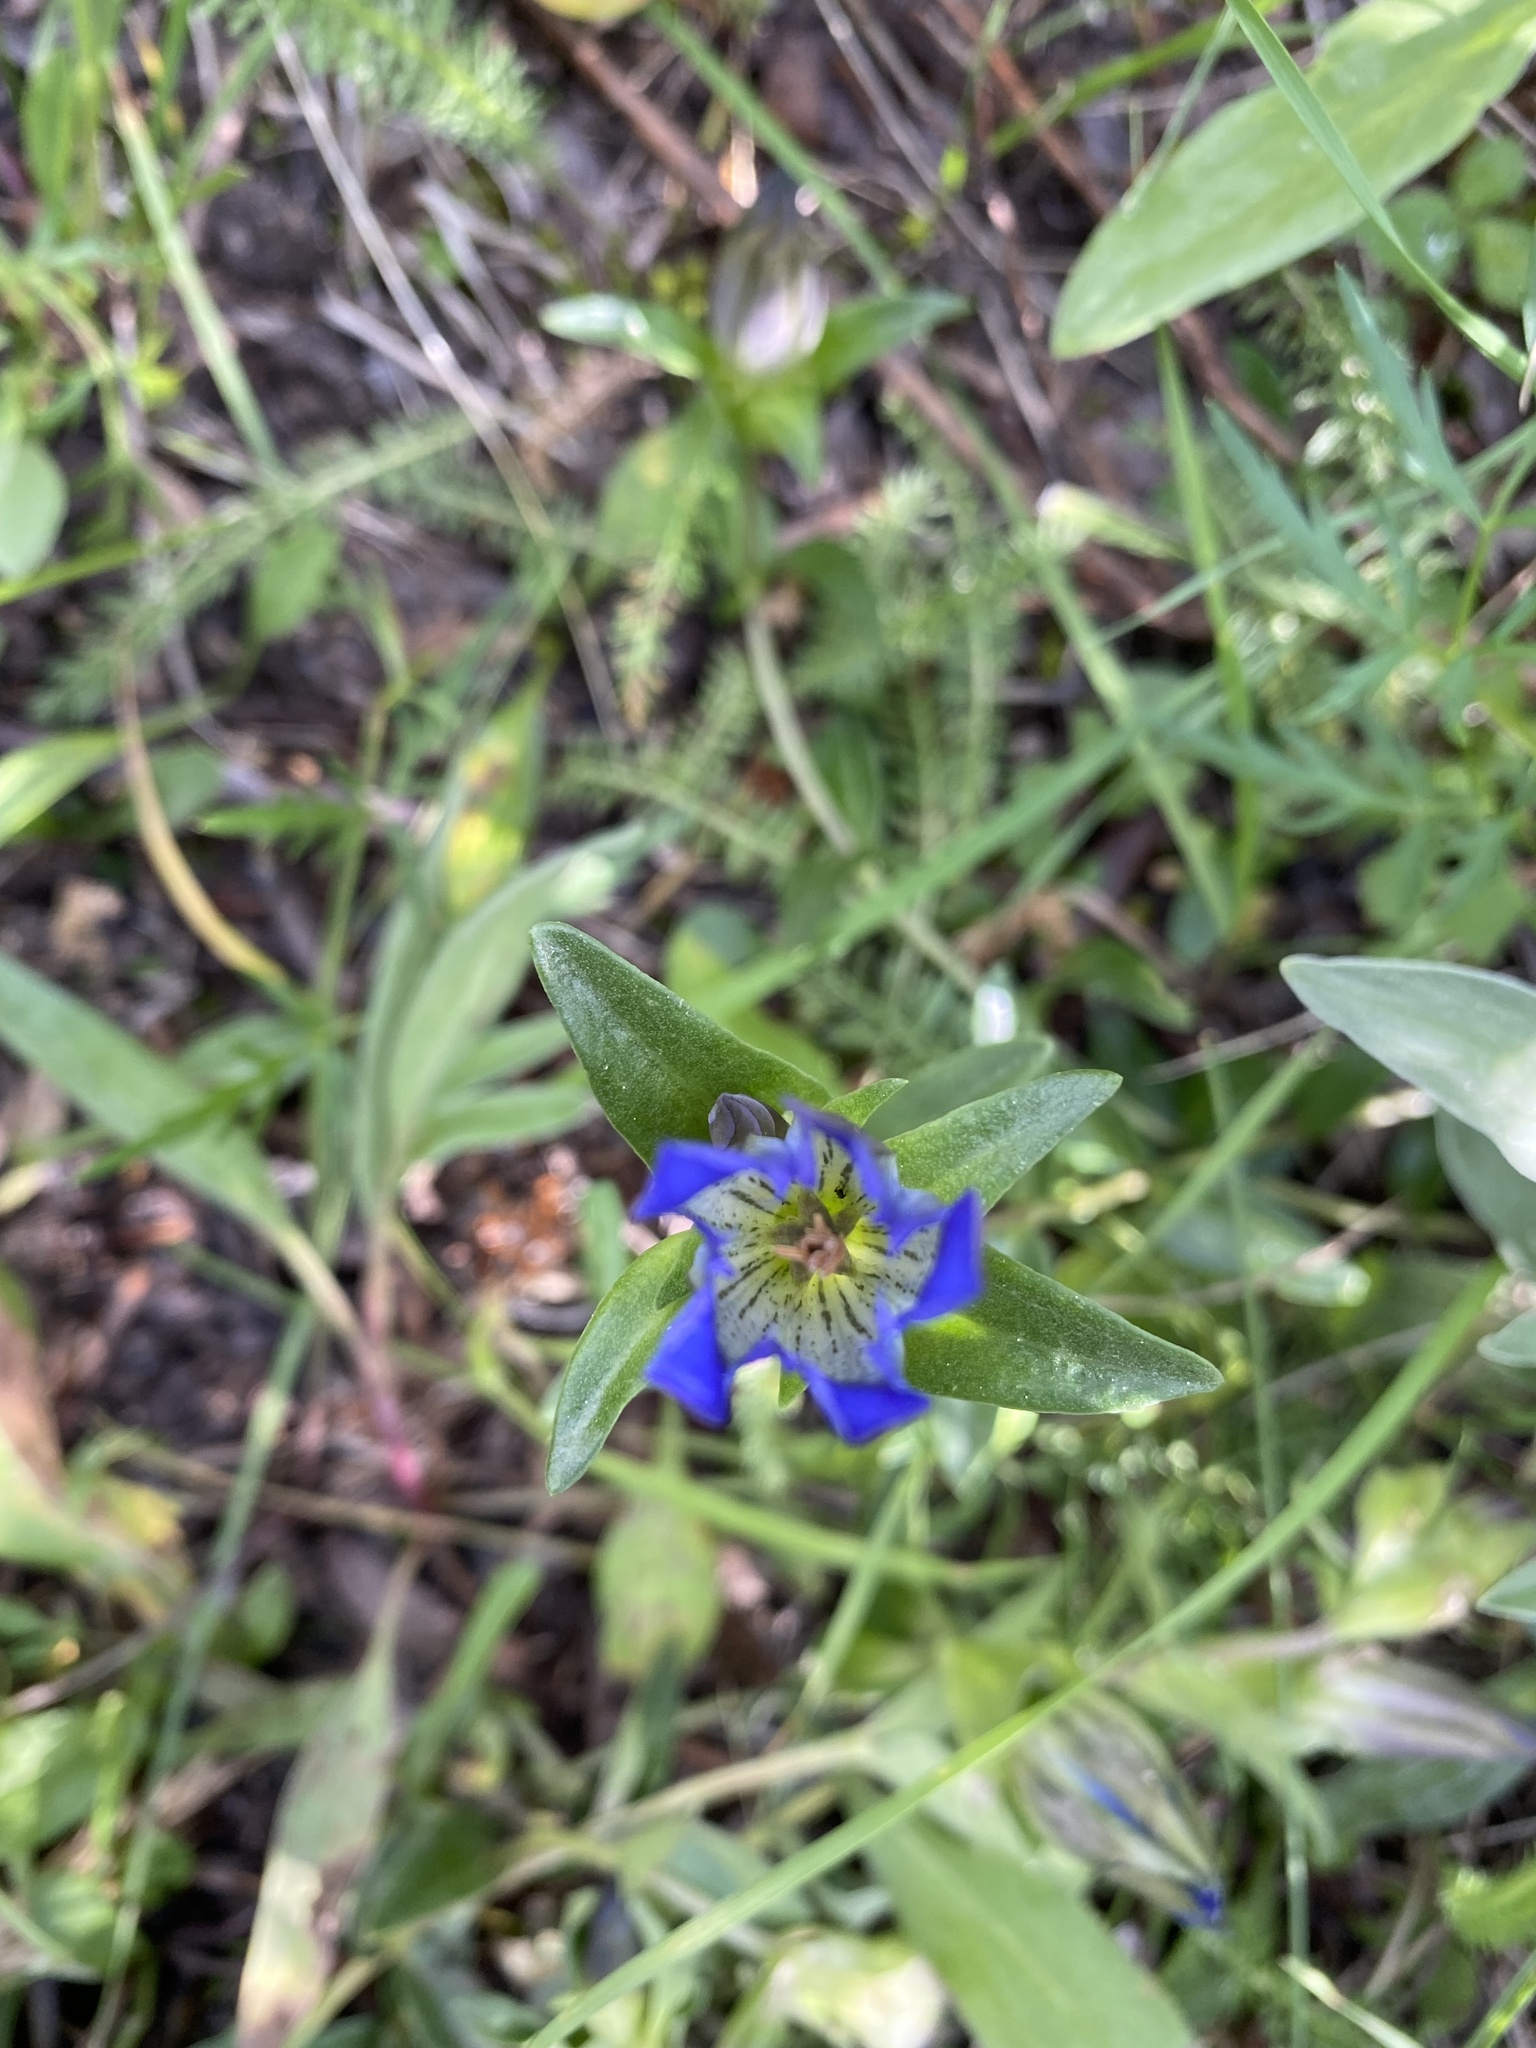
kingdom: Plantae
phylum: Tracheophyta
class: Magnoliopsida
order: Gentianales
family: Gentianaceae
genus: Gentiana
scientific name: Gentiana parryi
